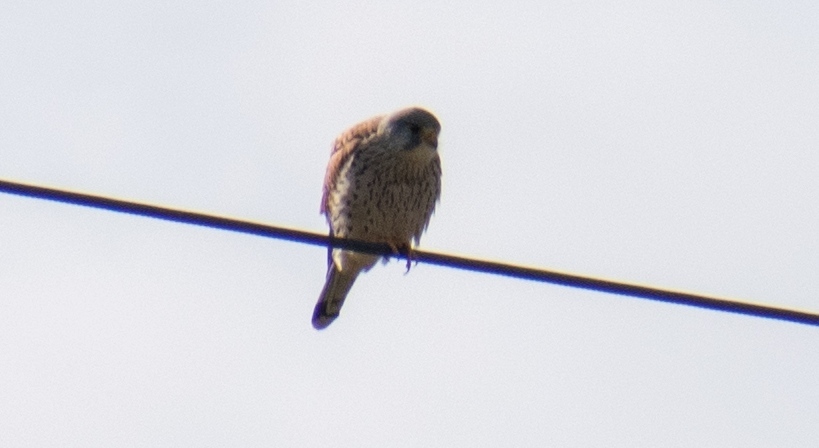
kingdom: Animalia
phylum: Chordata
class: Aves
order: Falconiformes
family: Falconidae
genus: Falco
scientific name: Falco tinnunculus
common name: Common kestrel
